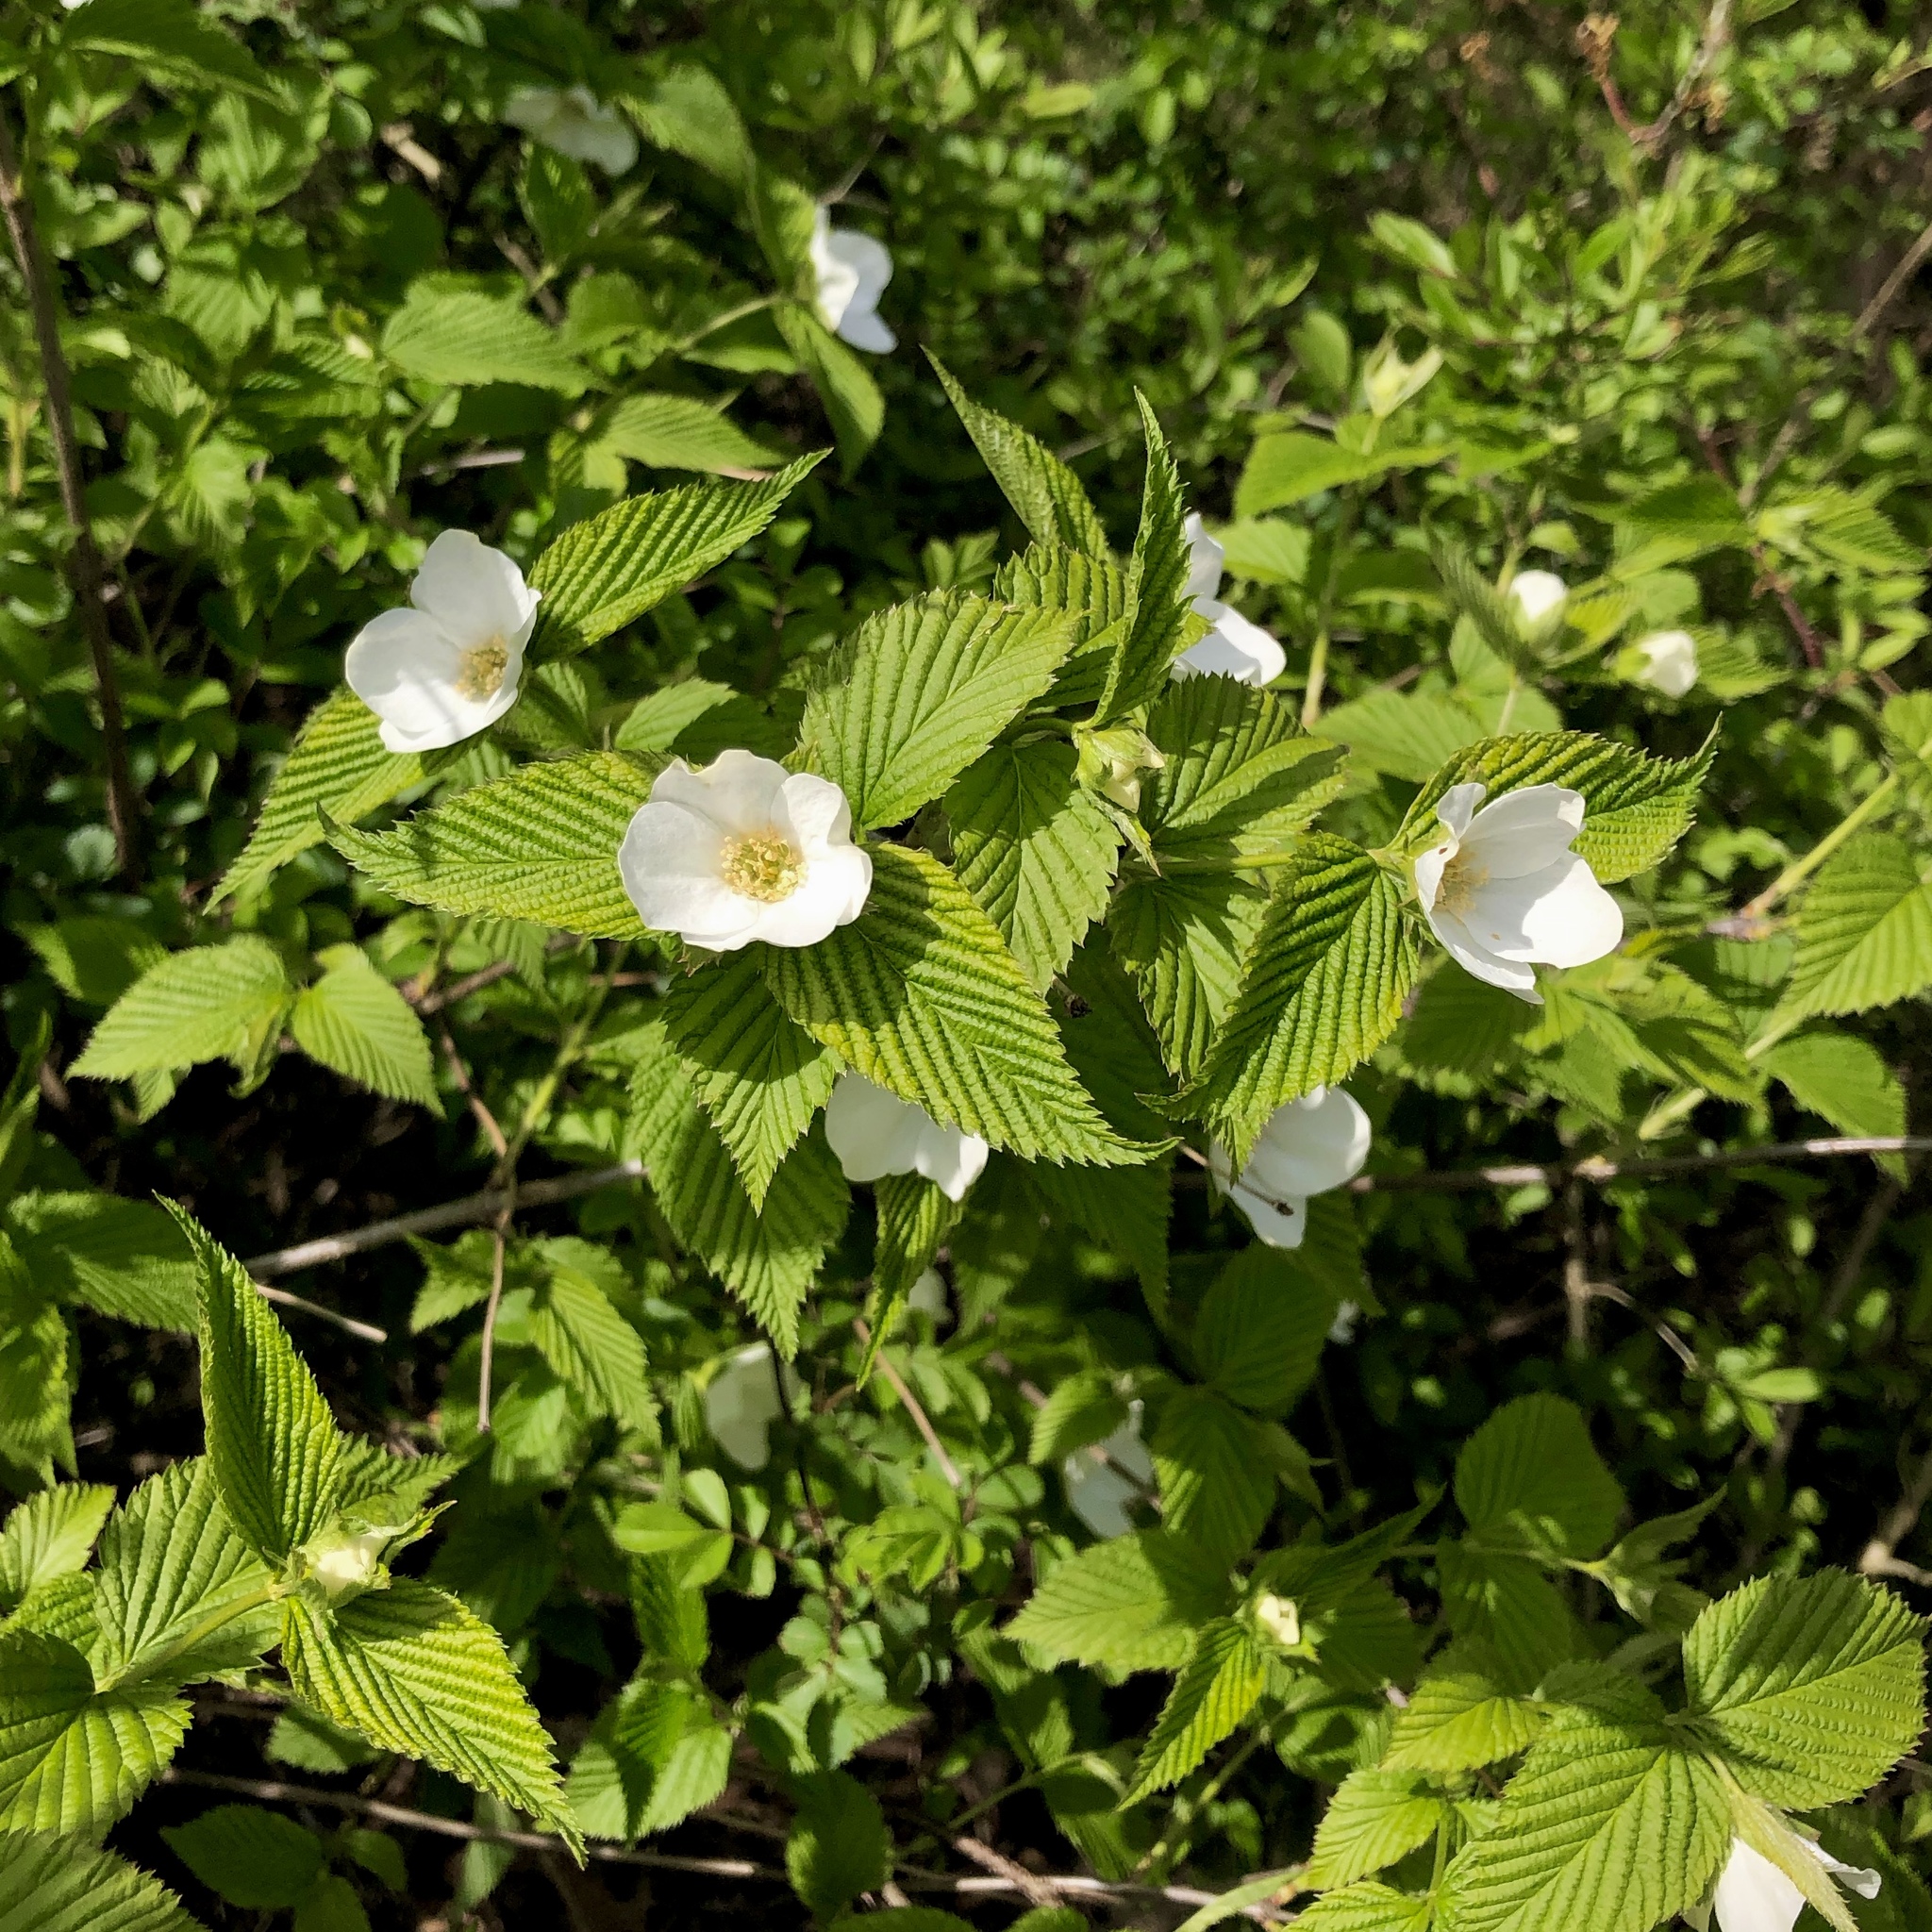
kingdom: Plantae
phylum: Tracheophyta
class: Magnoliopsida
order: Rosales
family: Rosaceae
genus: Rhodotypos
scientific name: Rhodotypos scandens
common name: Jetbead
